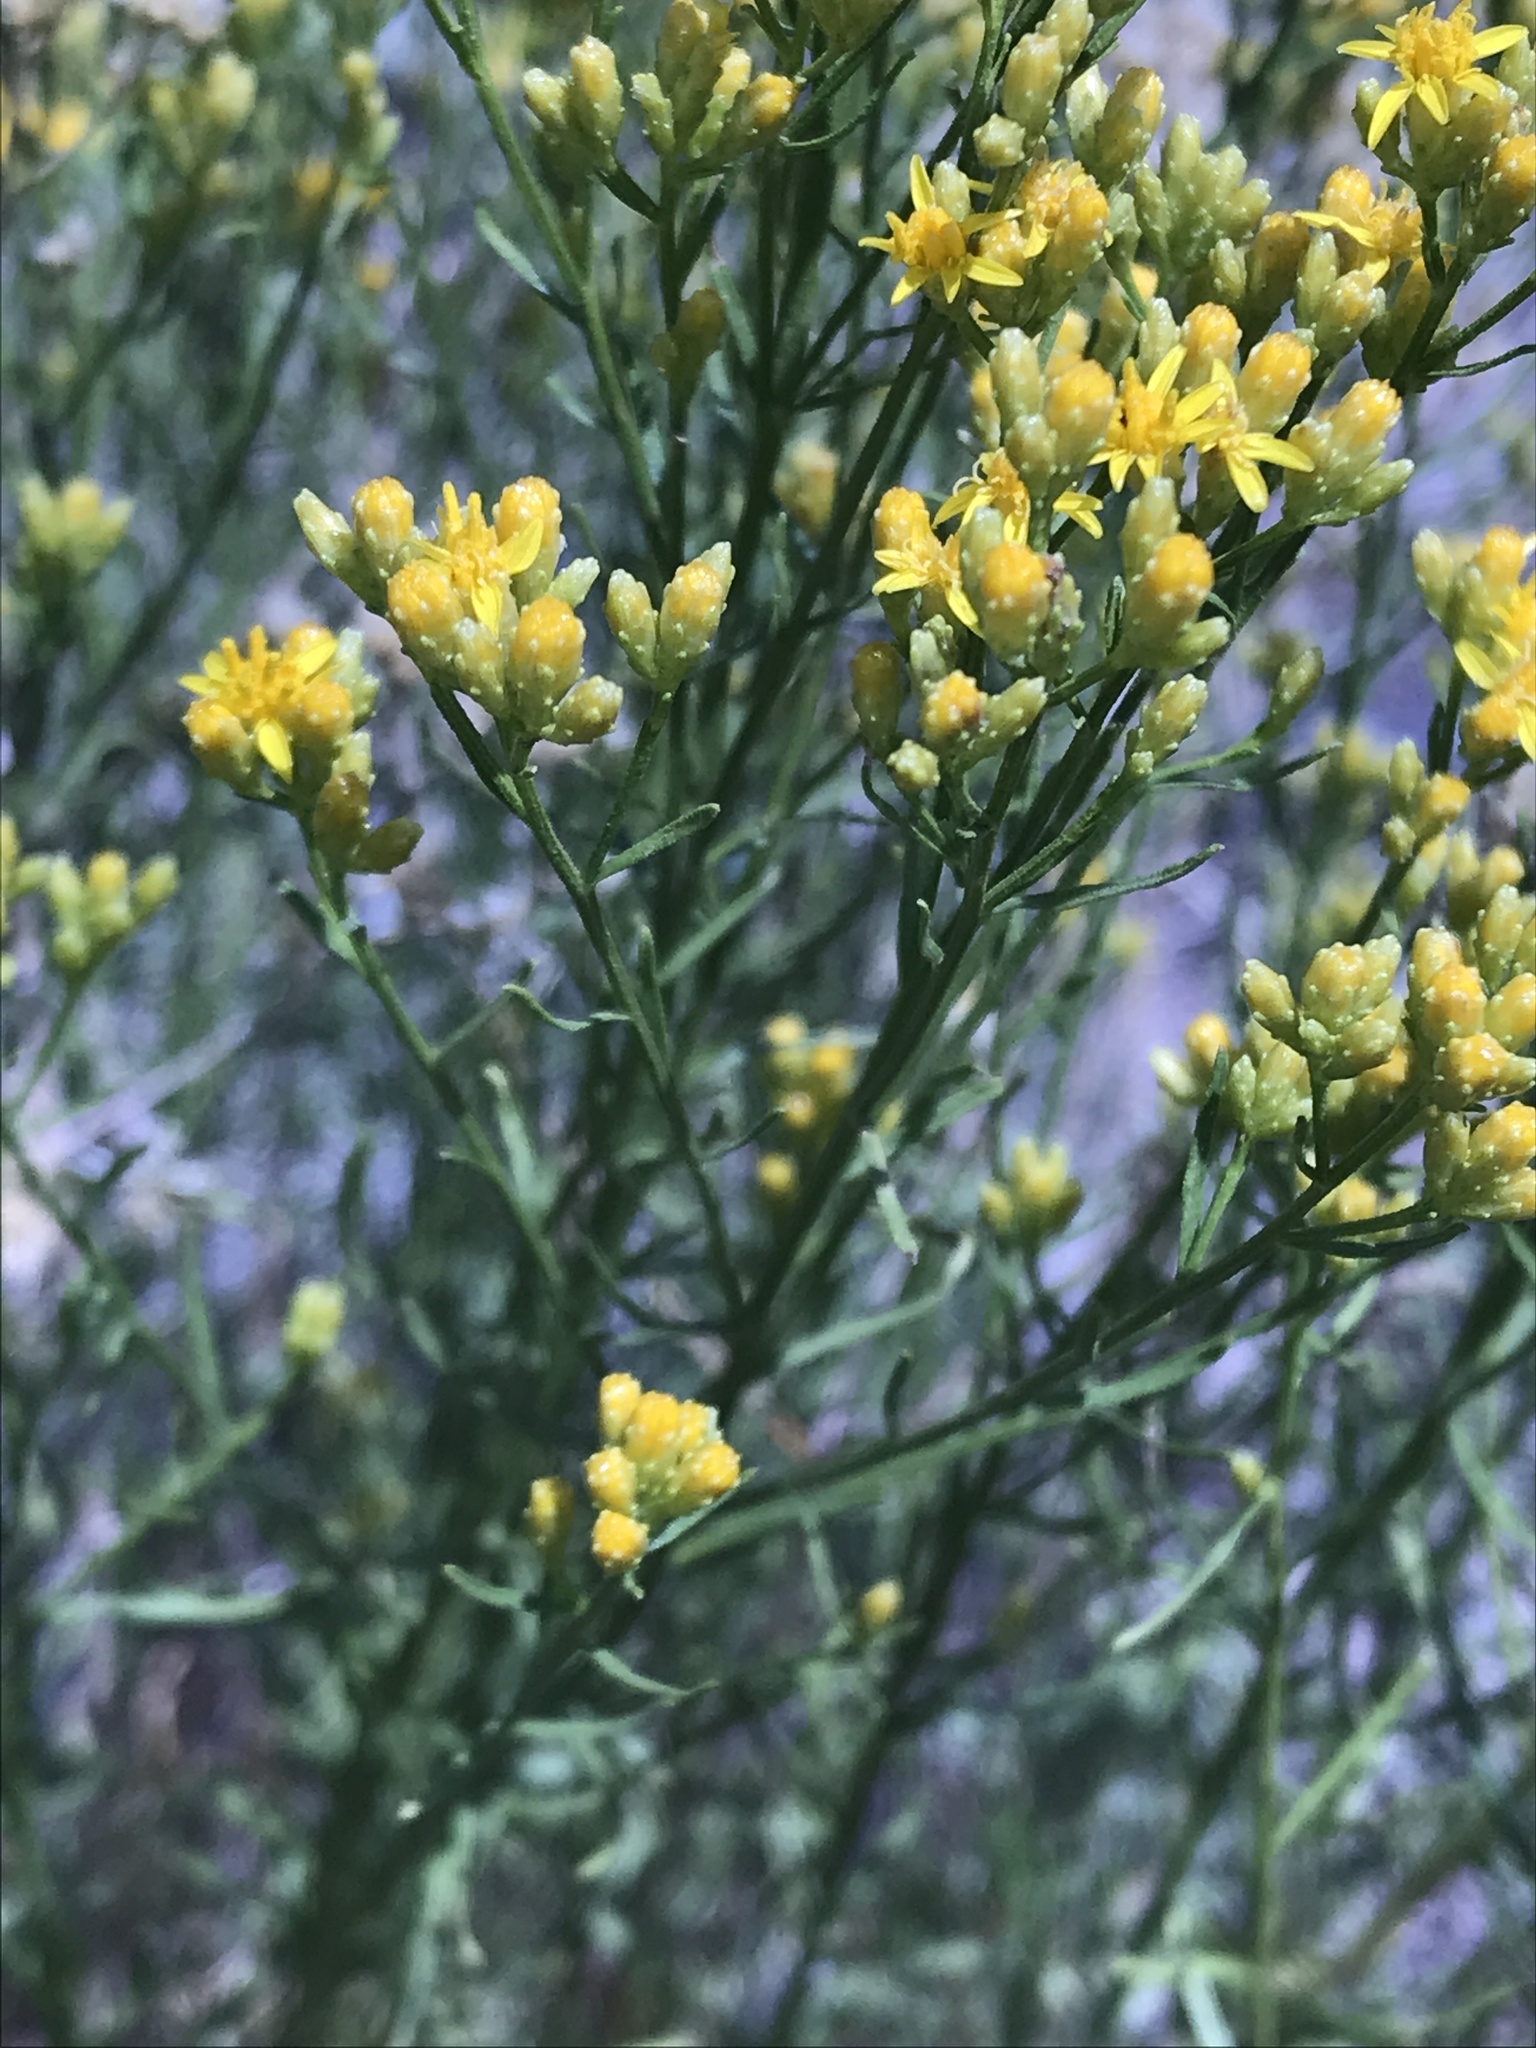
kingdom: Plantae
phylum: Tracheophyta
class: Magnoliopsida
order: Asterales
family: Asteraceae
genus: Gutierrezia
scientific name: Gutierrezia sarothrae
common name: Broom snakeweed
